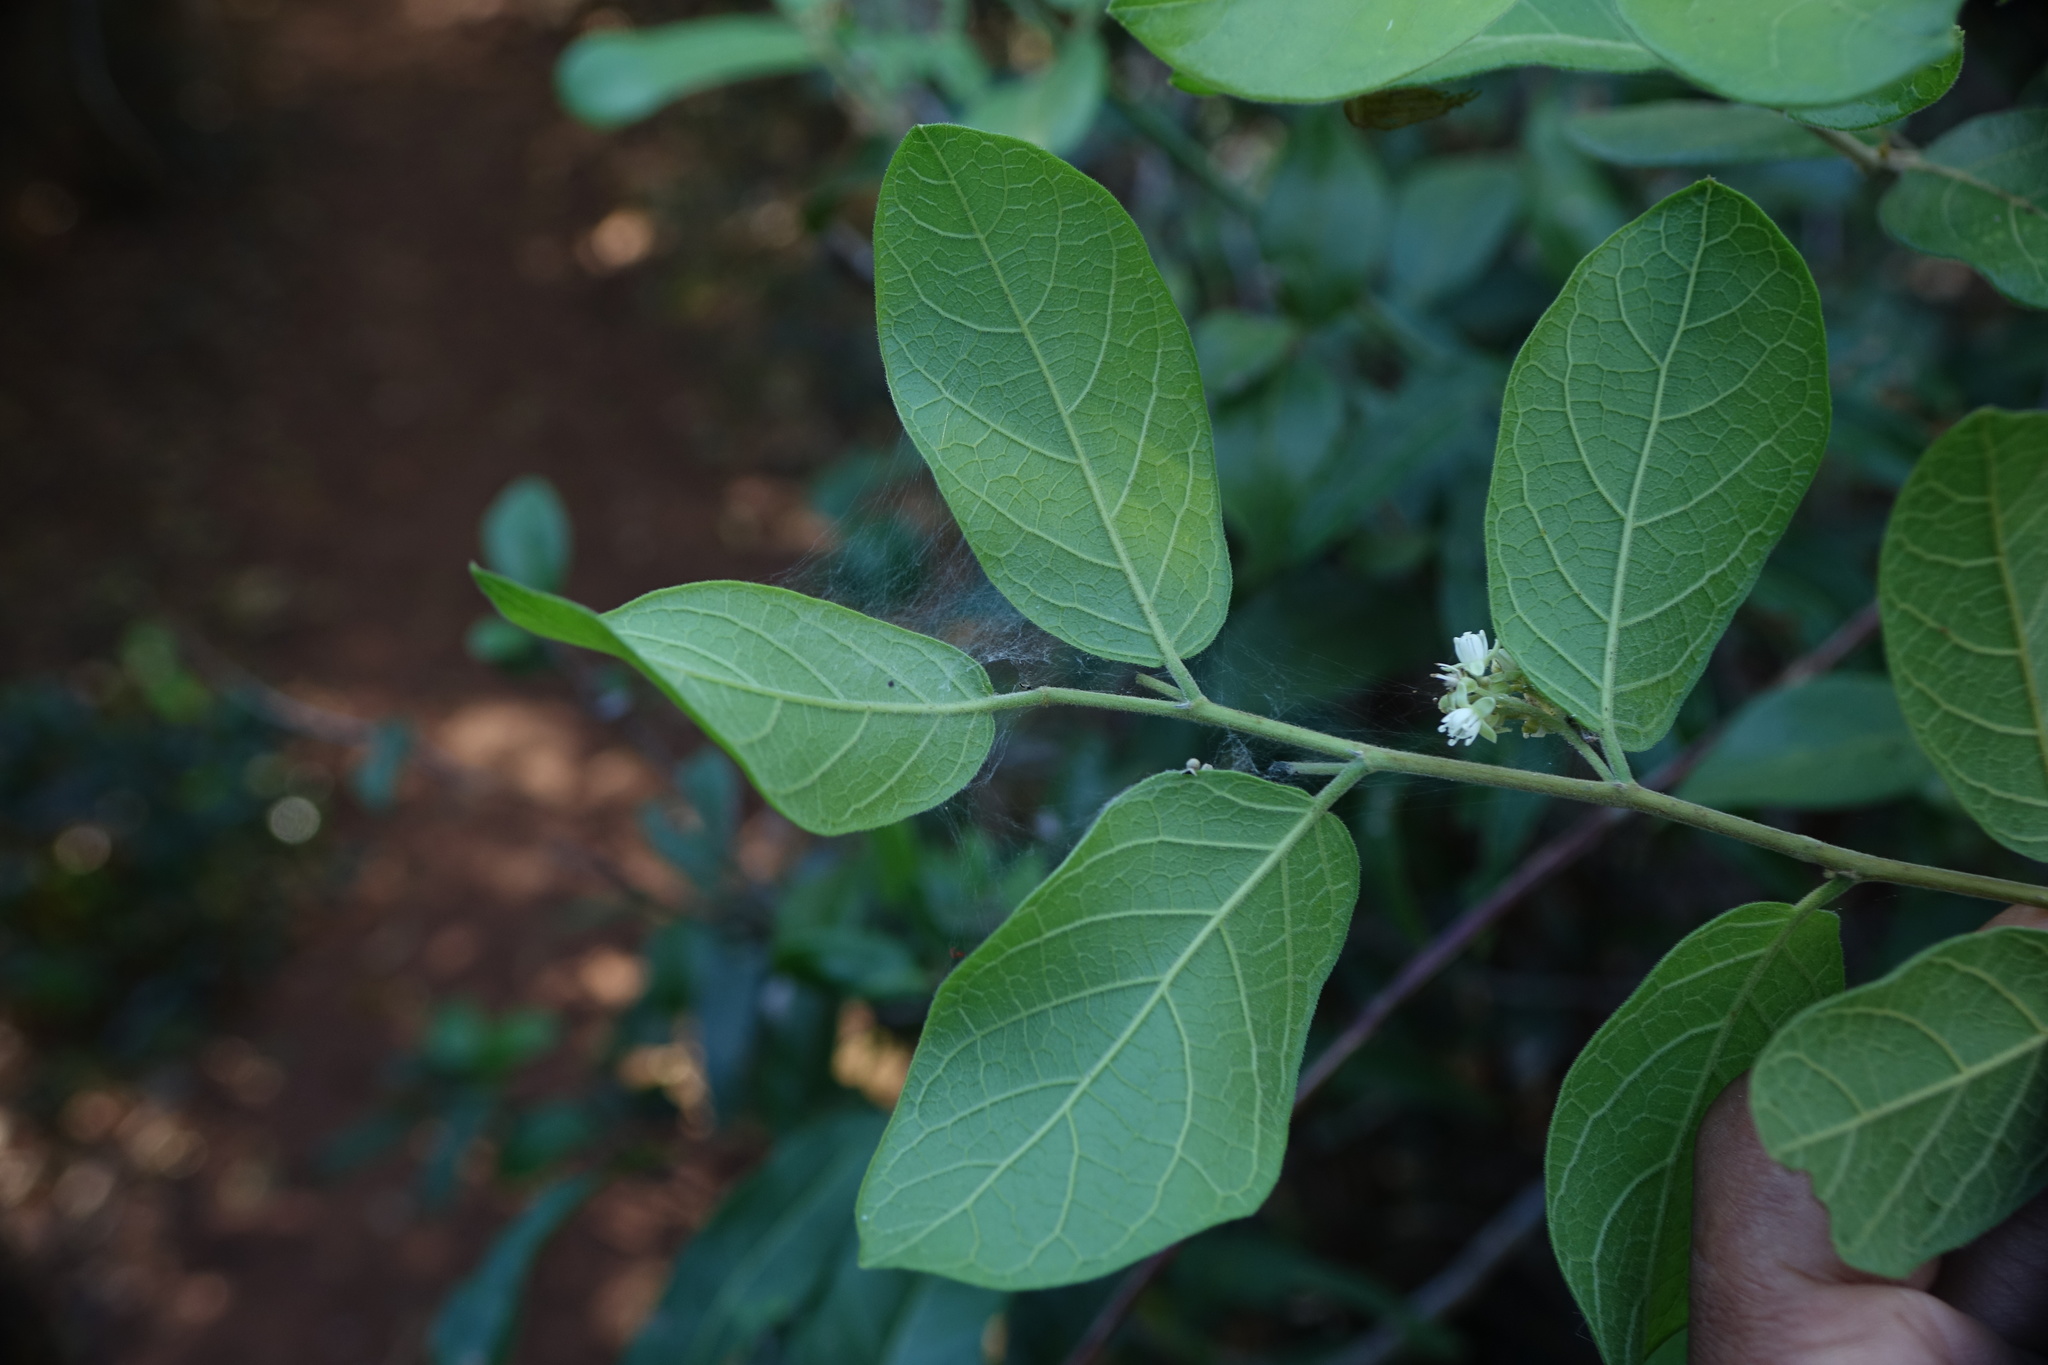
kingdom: Plantae
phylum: Tracheophyta
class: Magnoliopsida
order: Malpighiales
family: Dichapetalaceae
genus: Dichapetalum
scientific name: Dichapetalum bojeri
